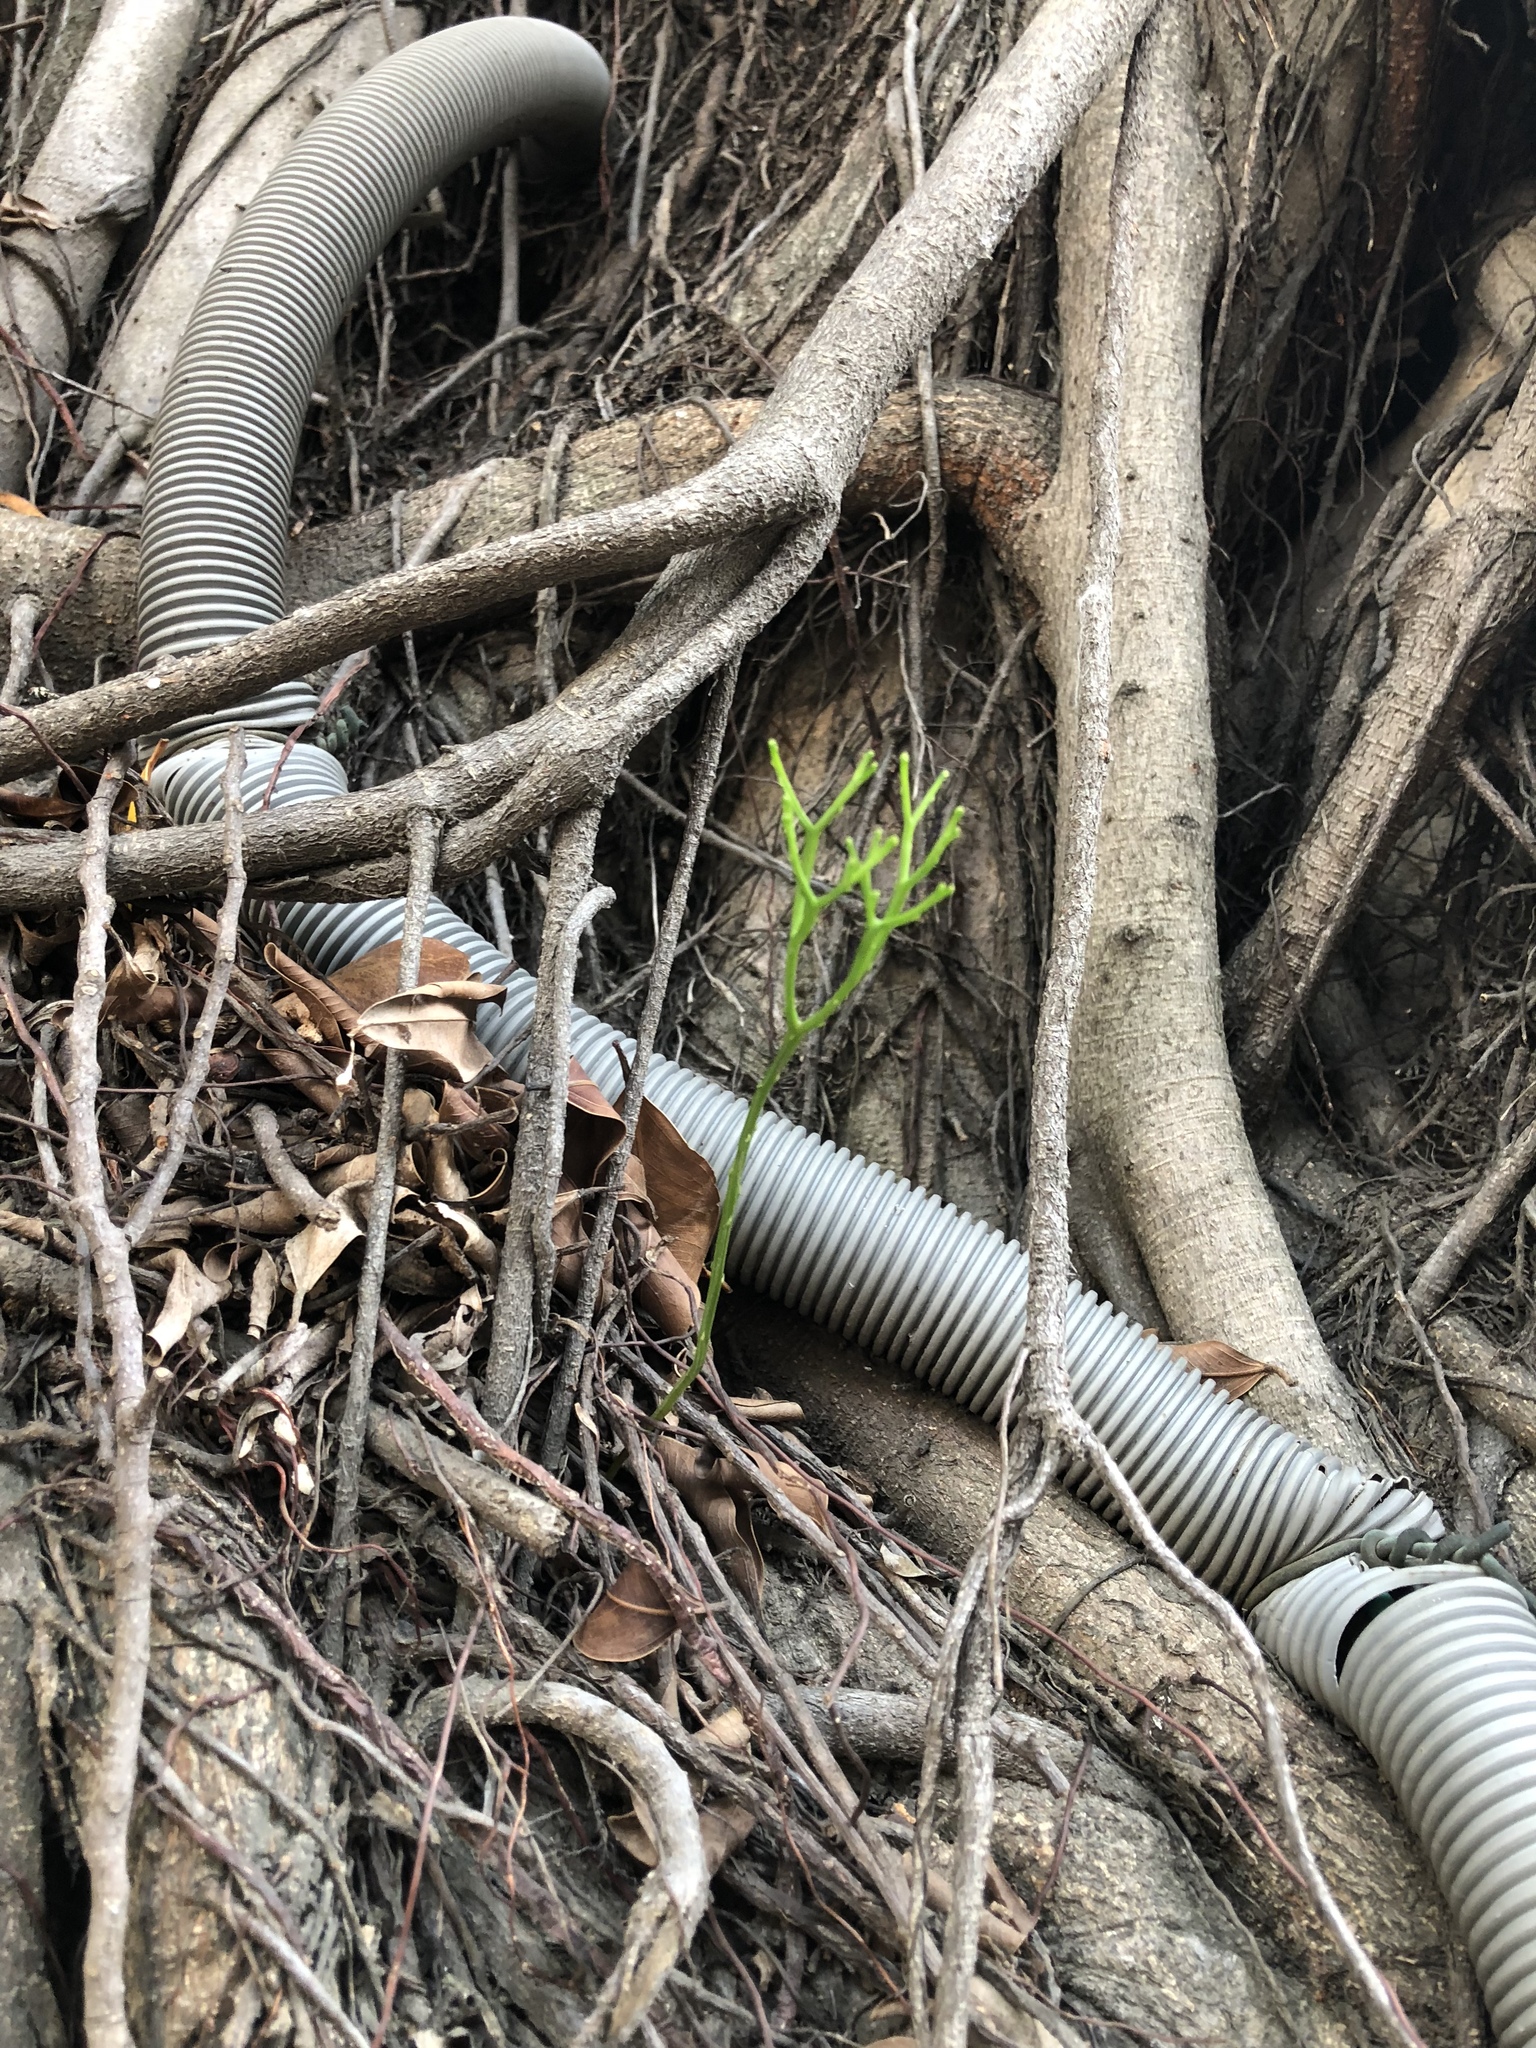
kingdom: Plantae
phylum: Tracheophyta
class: Polypodiopsida
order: Psilotales
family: Psilotaceae
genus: Psilotum
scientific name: Psilotum nudum
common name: Skeleton fork fern
